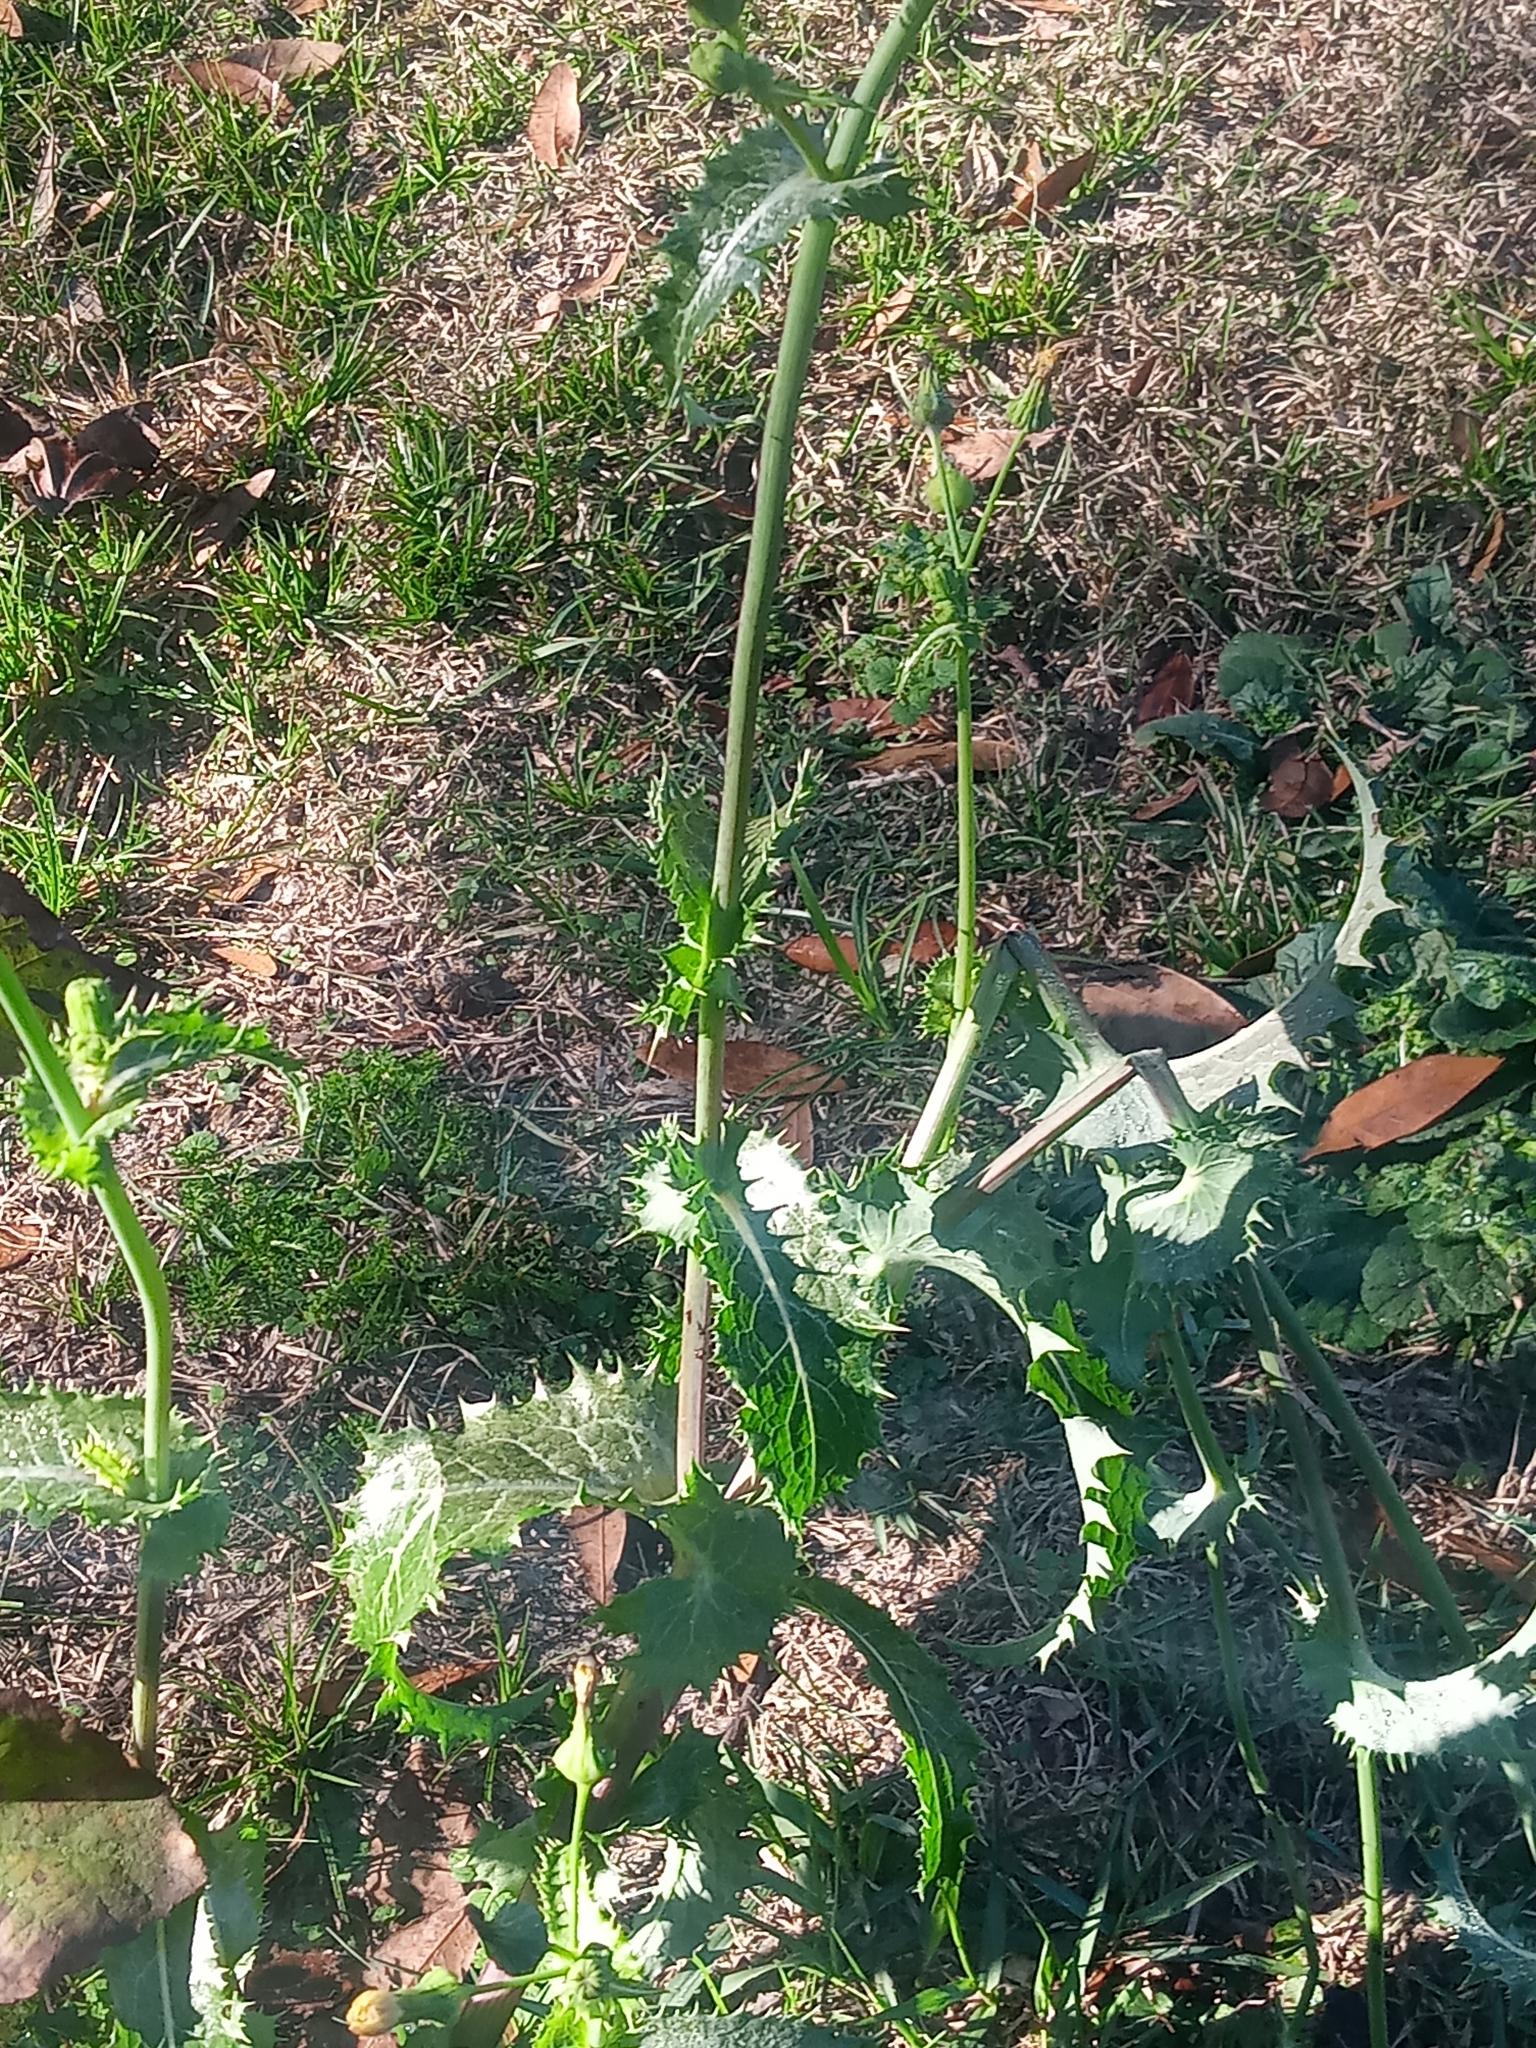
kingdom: Plantae
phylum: Tracheophyta
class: Magnoliopsida
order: Asterales
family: Asteraceae
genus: Sonchus
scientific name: Sonchus asper
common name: Prickly sow-thistle
